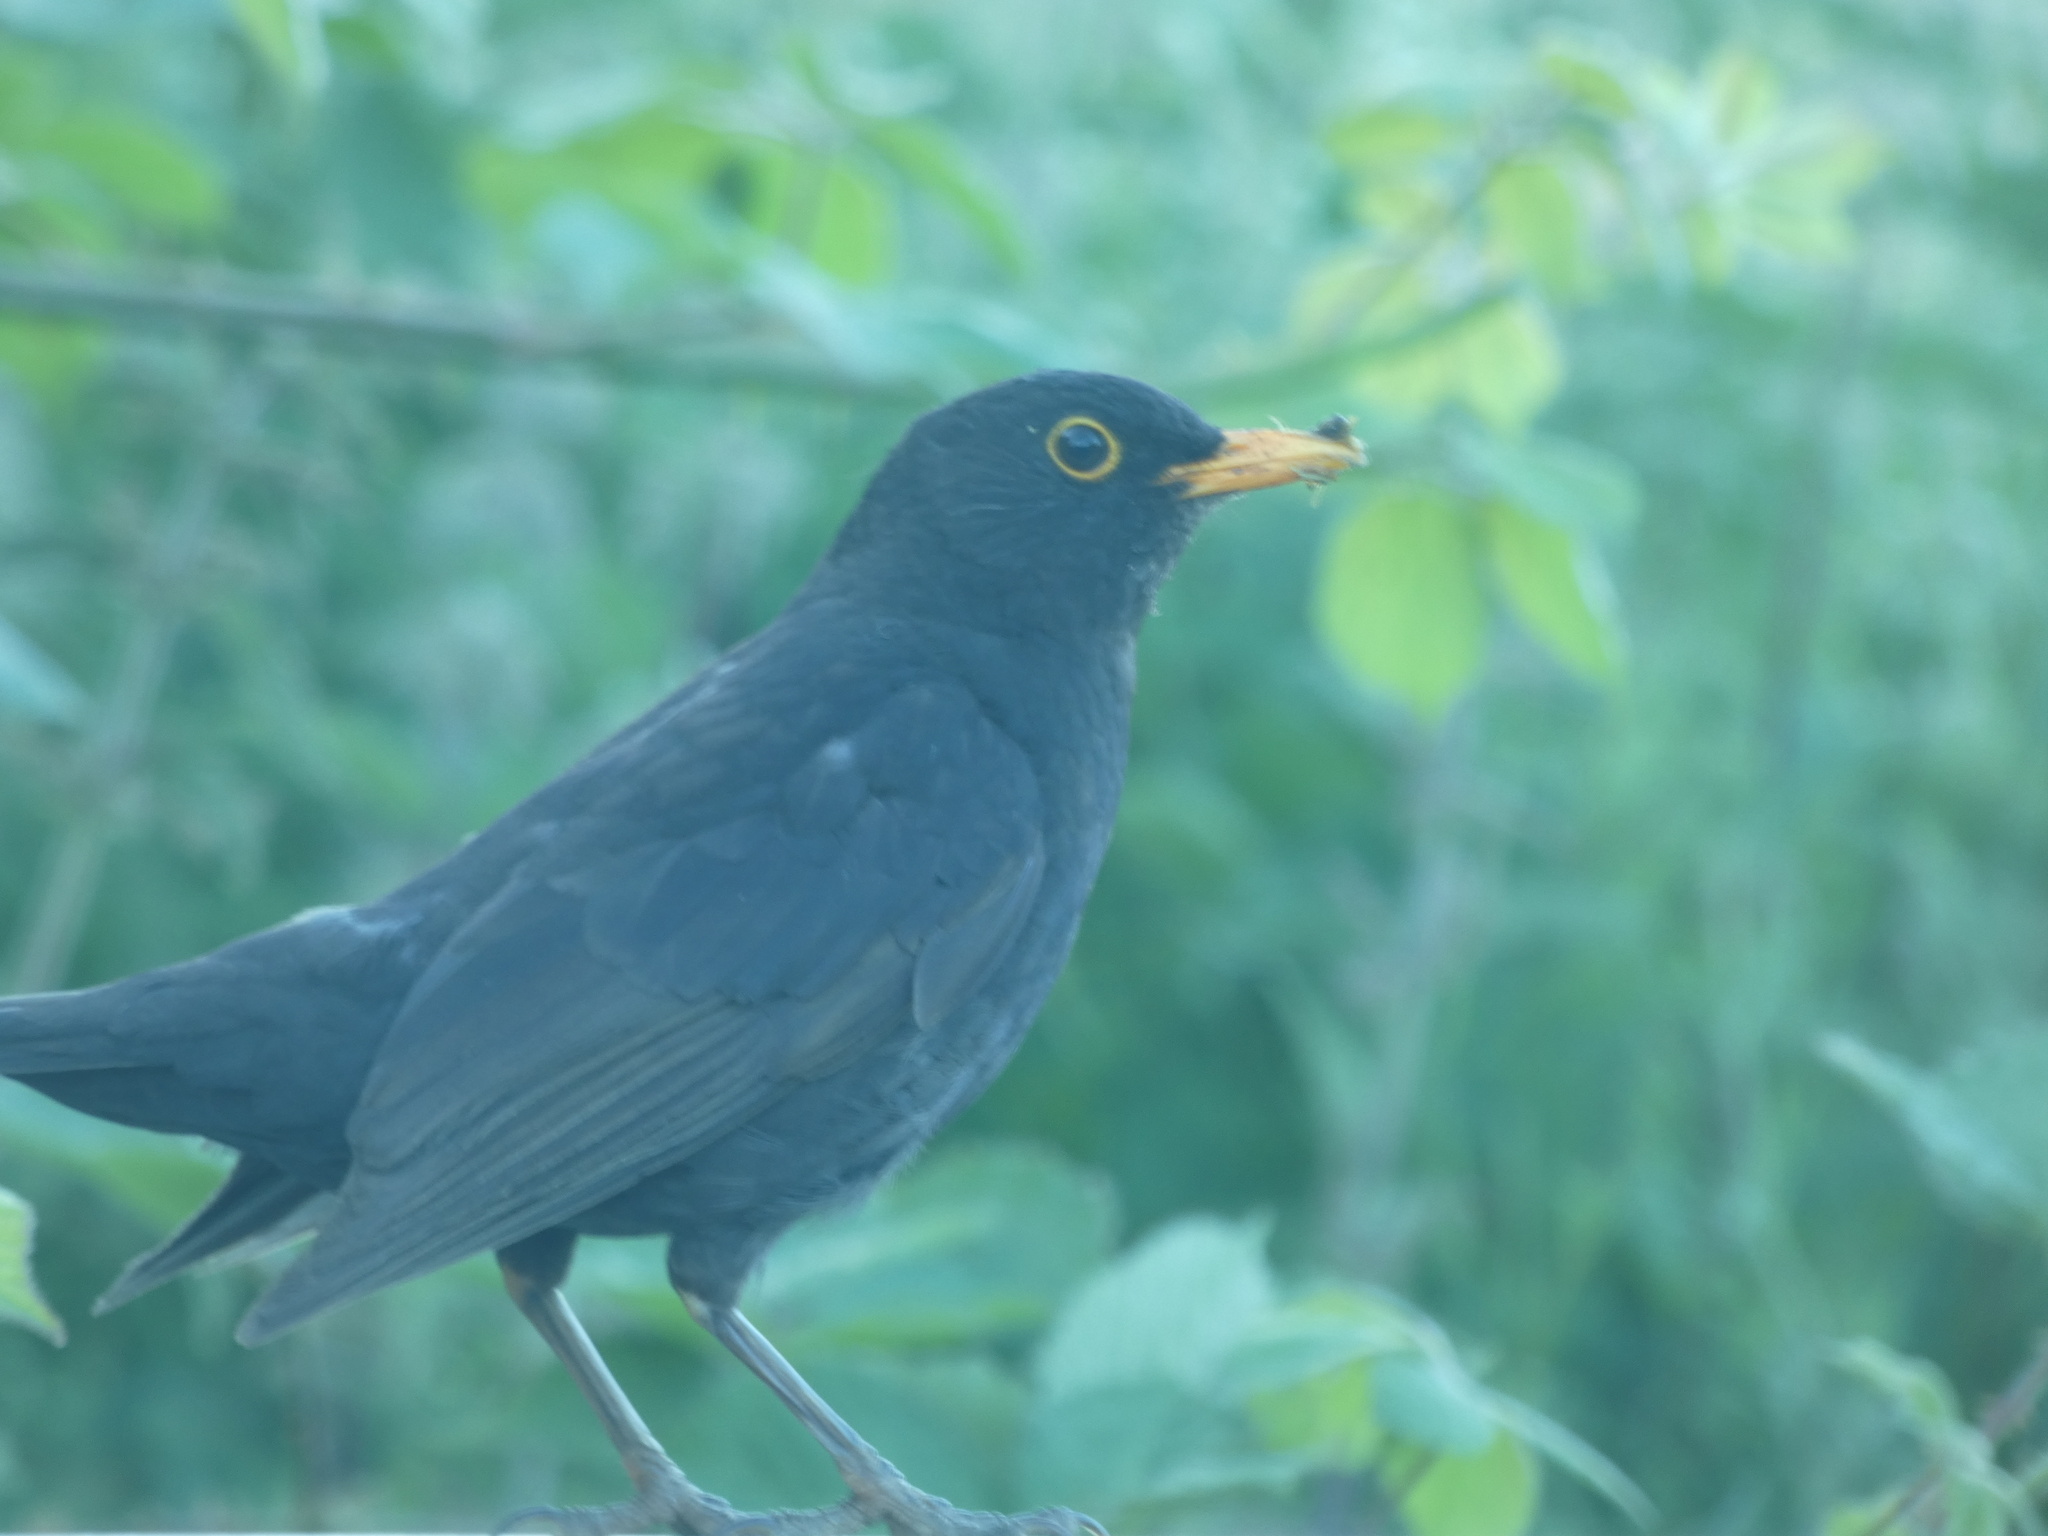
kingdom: Animalia
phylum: Chordata
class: Aves
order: Passeriformes
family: Turdidae
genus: Turdus
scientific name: Turdus merula
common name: Common blackbird
